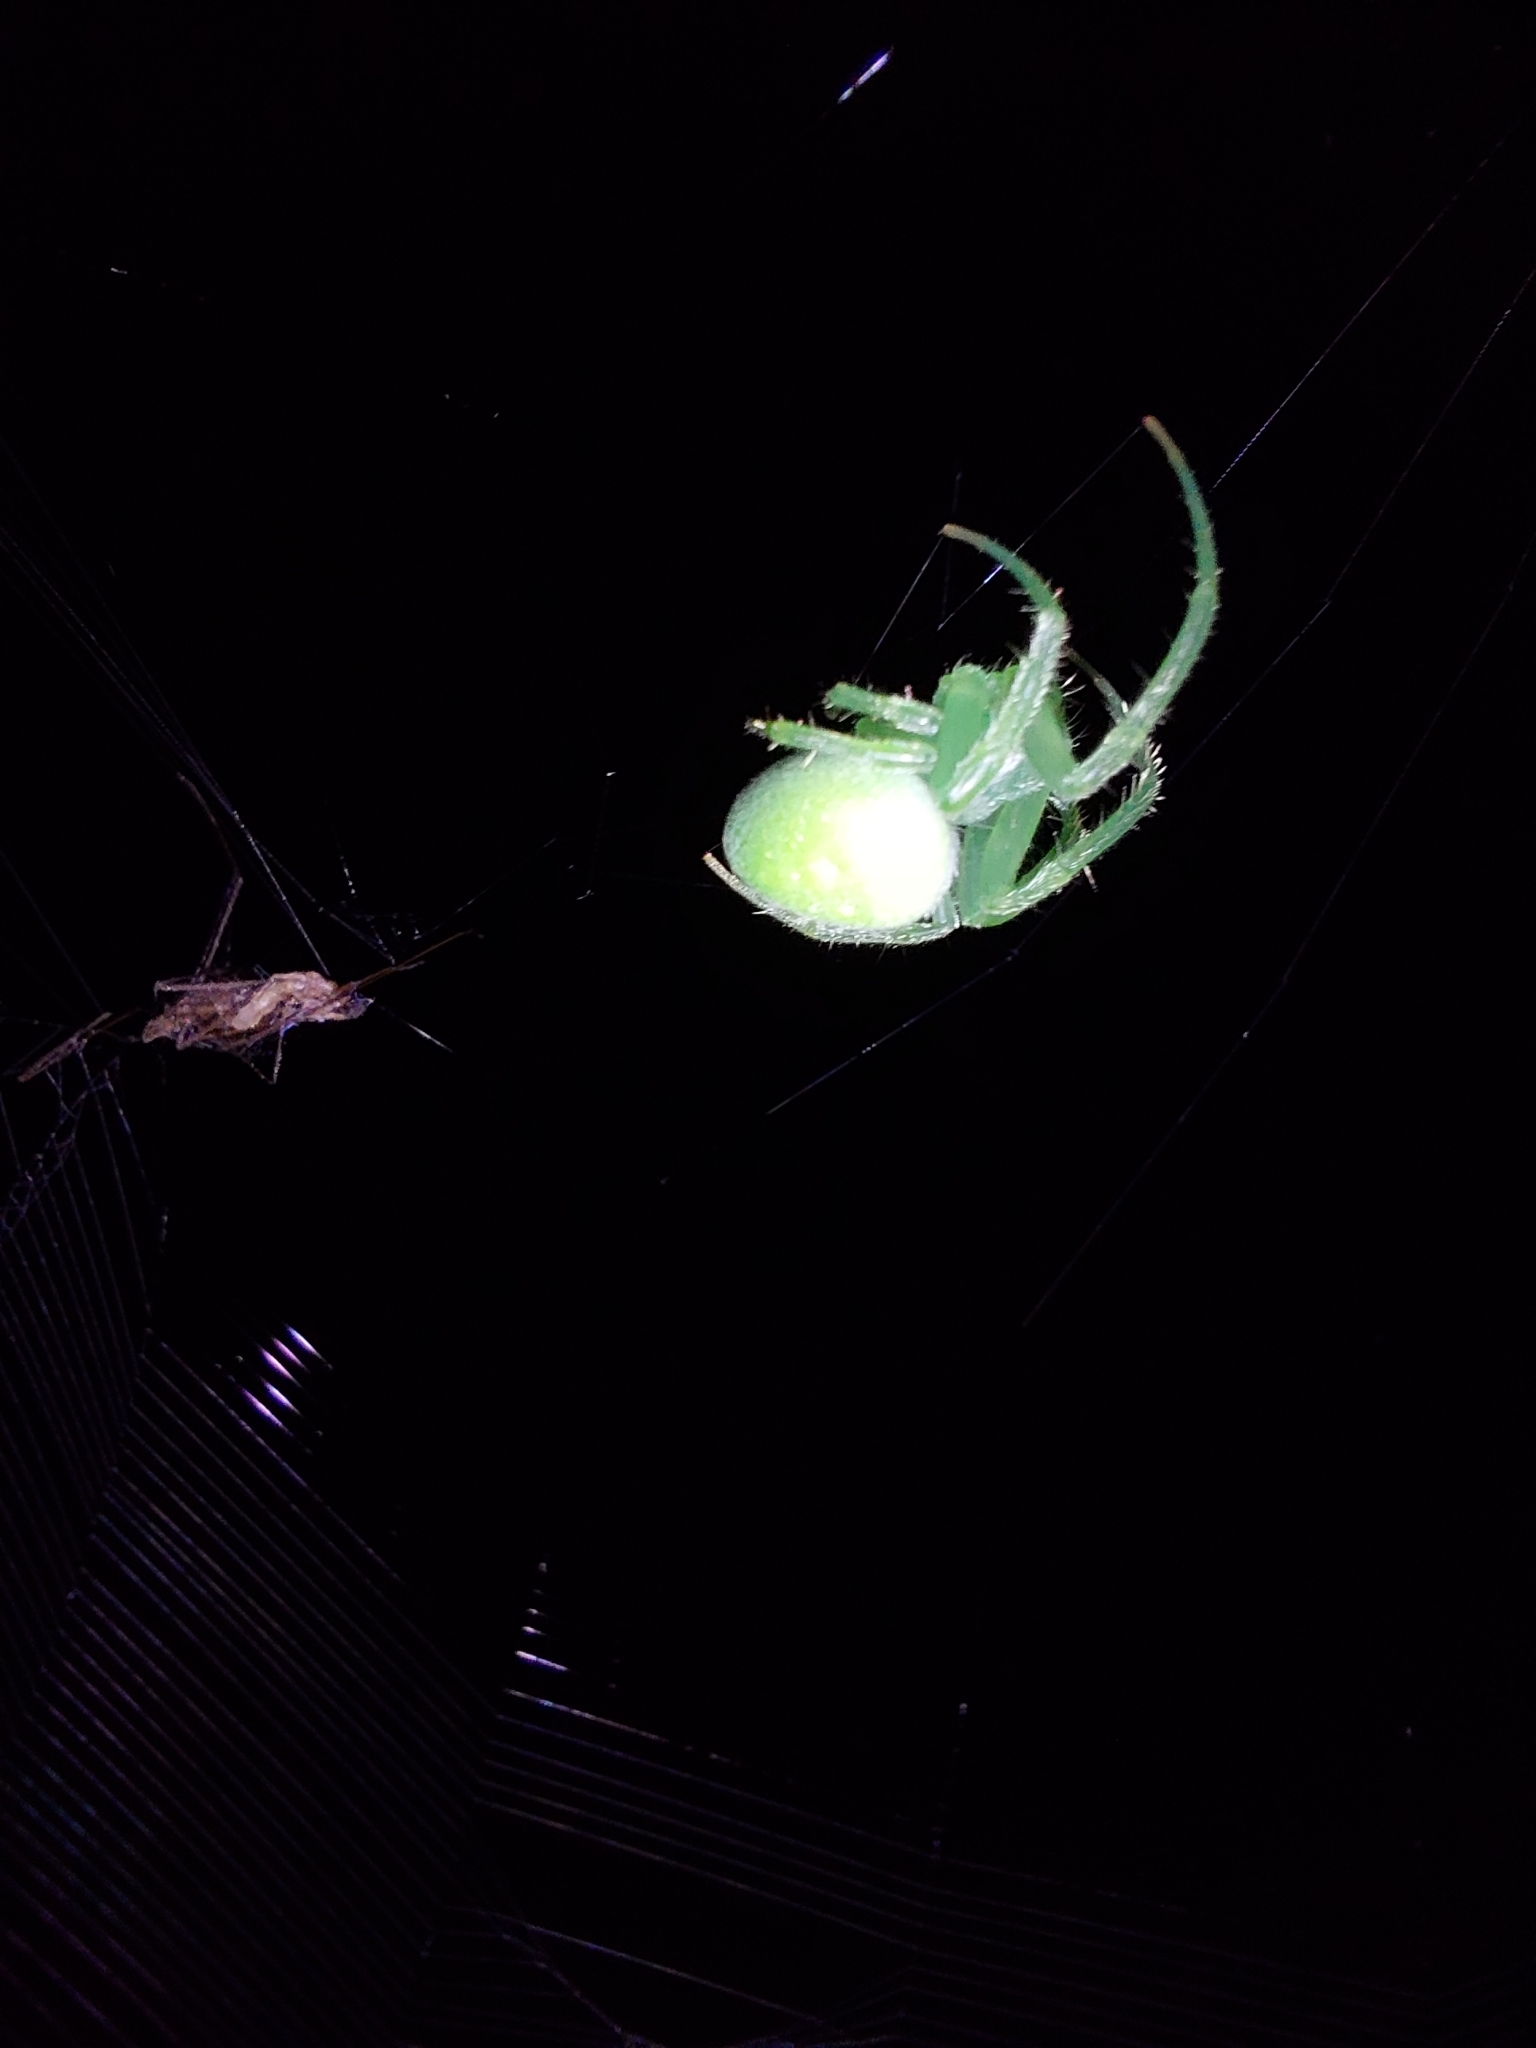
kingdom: Animalia
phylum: Arthropoda
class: Arachnida
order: Araneae
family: Araneidae
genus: Araneus
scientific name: Araneus uniformis
